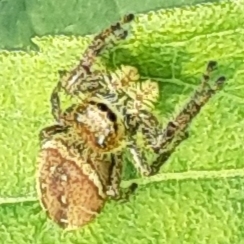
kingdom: Animalia
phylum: Arthropoda
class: Arachnida
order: Araneae
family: Salticidae
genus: Phidippus
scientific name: Phidippus clarus
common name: Brilliant jumping spider
